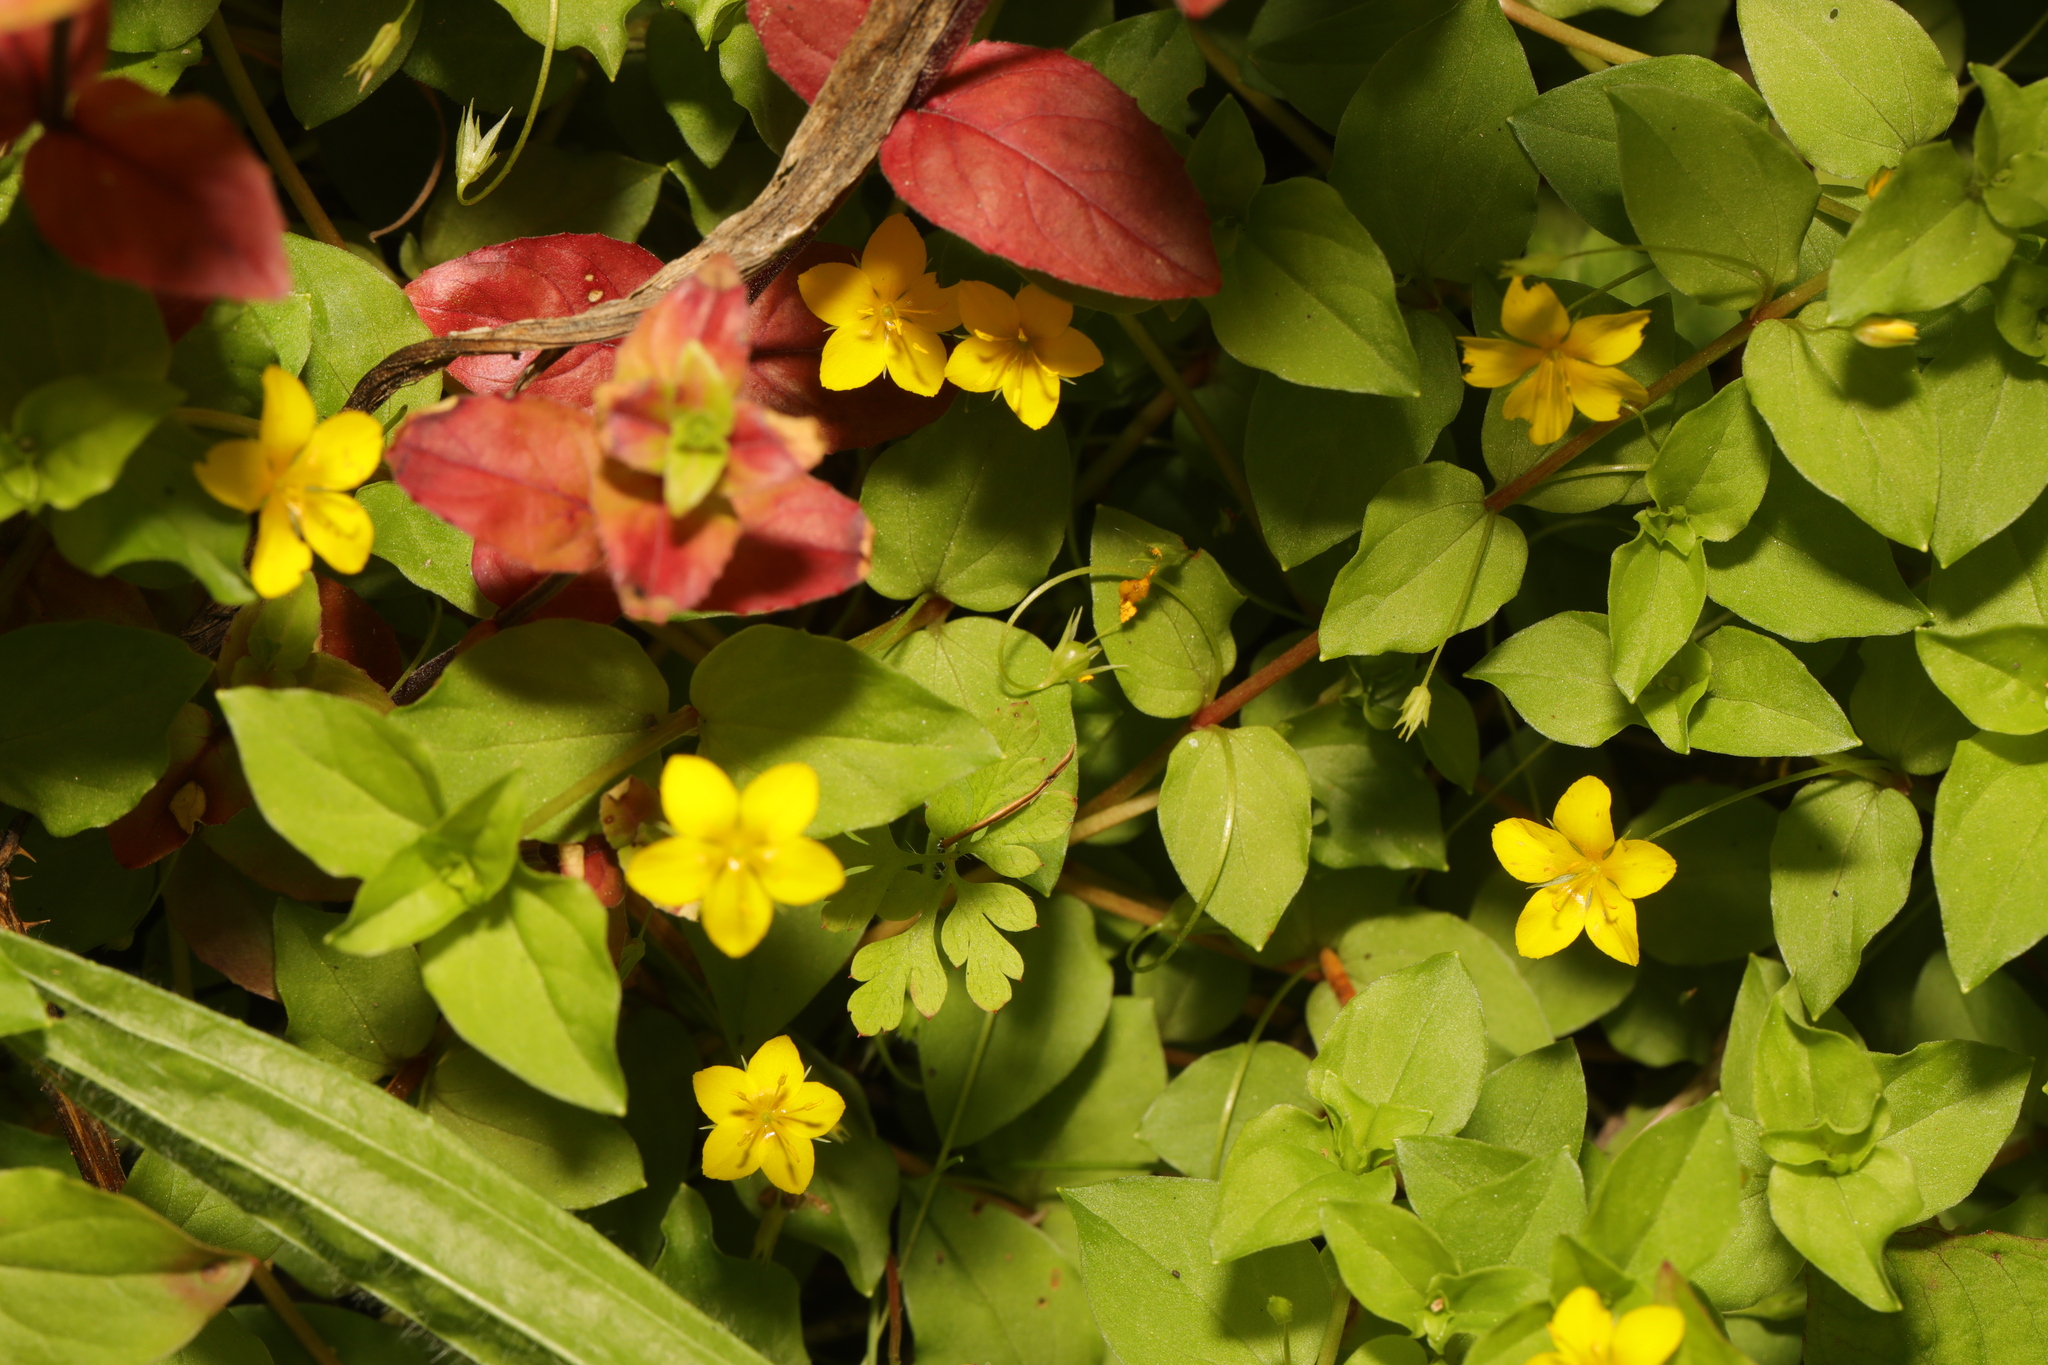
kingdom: Plantae
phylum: Tracheophyta
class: Magnoliopsida
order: Ericales
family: Primulaceae
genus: Lysimachia
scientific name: Lysimachia nemorum
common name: Yellow pimpernel
